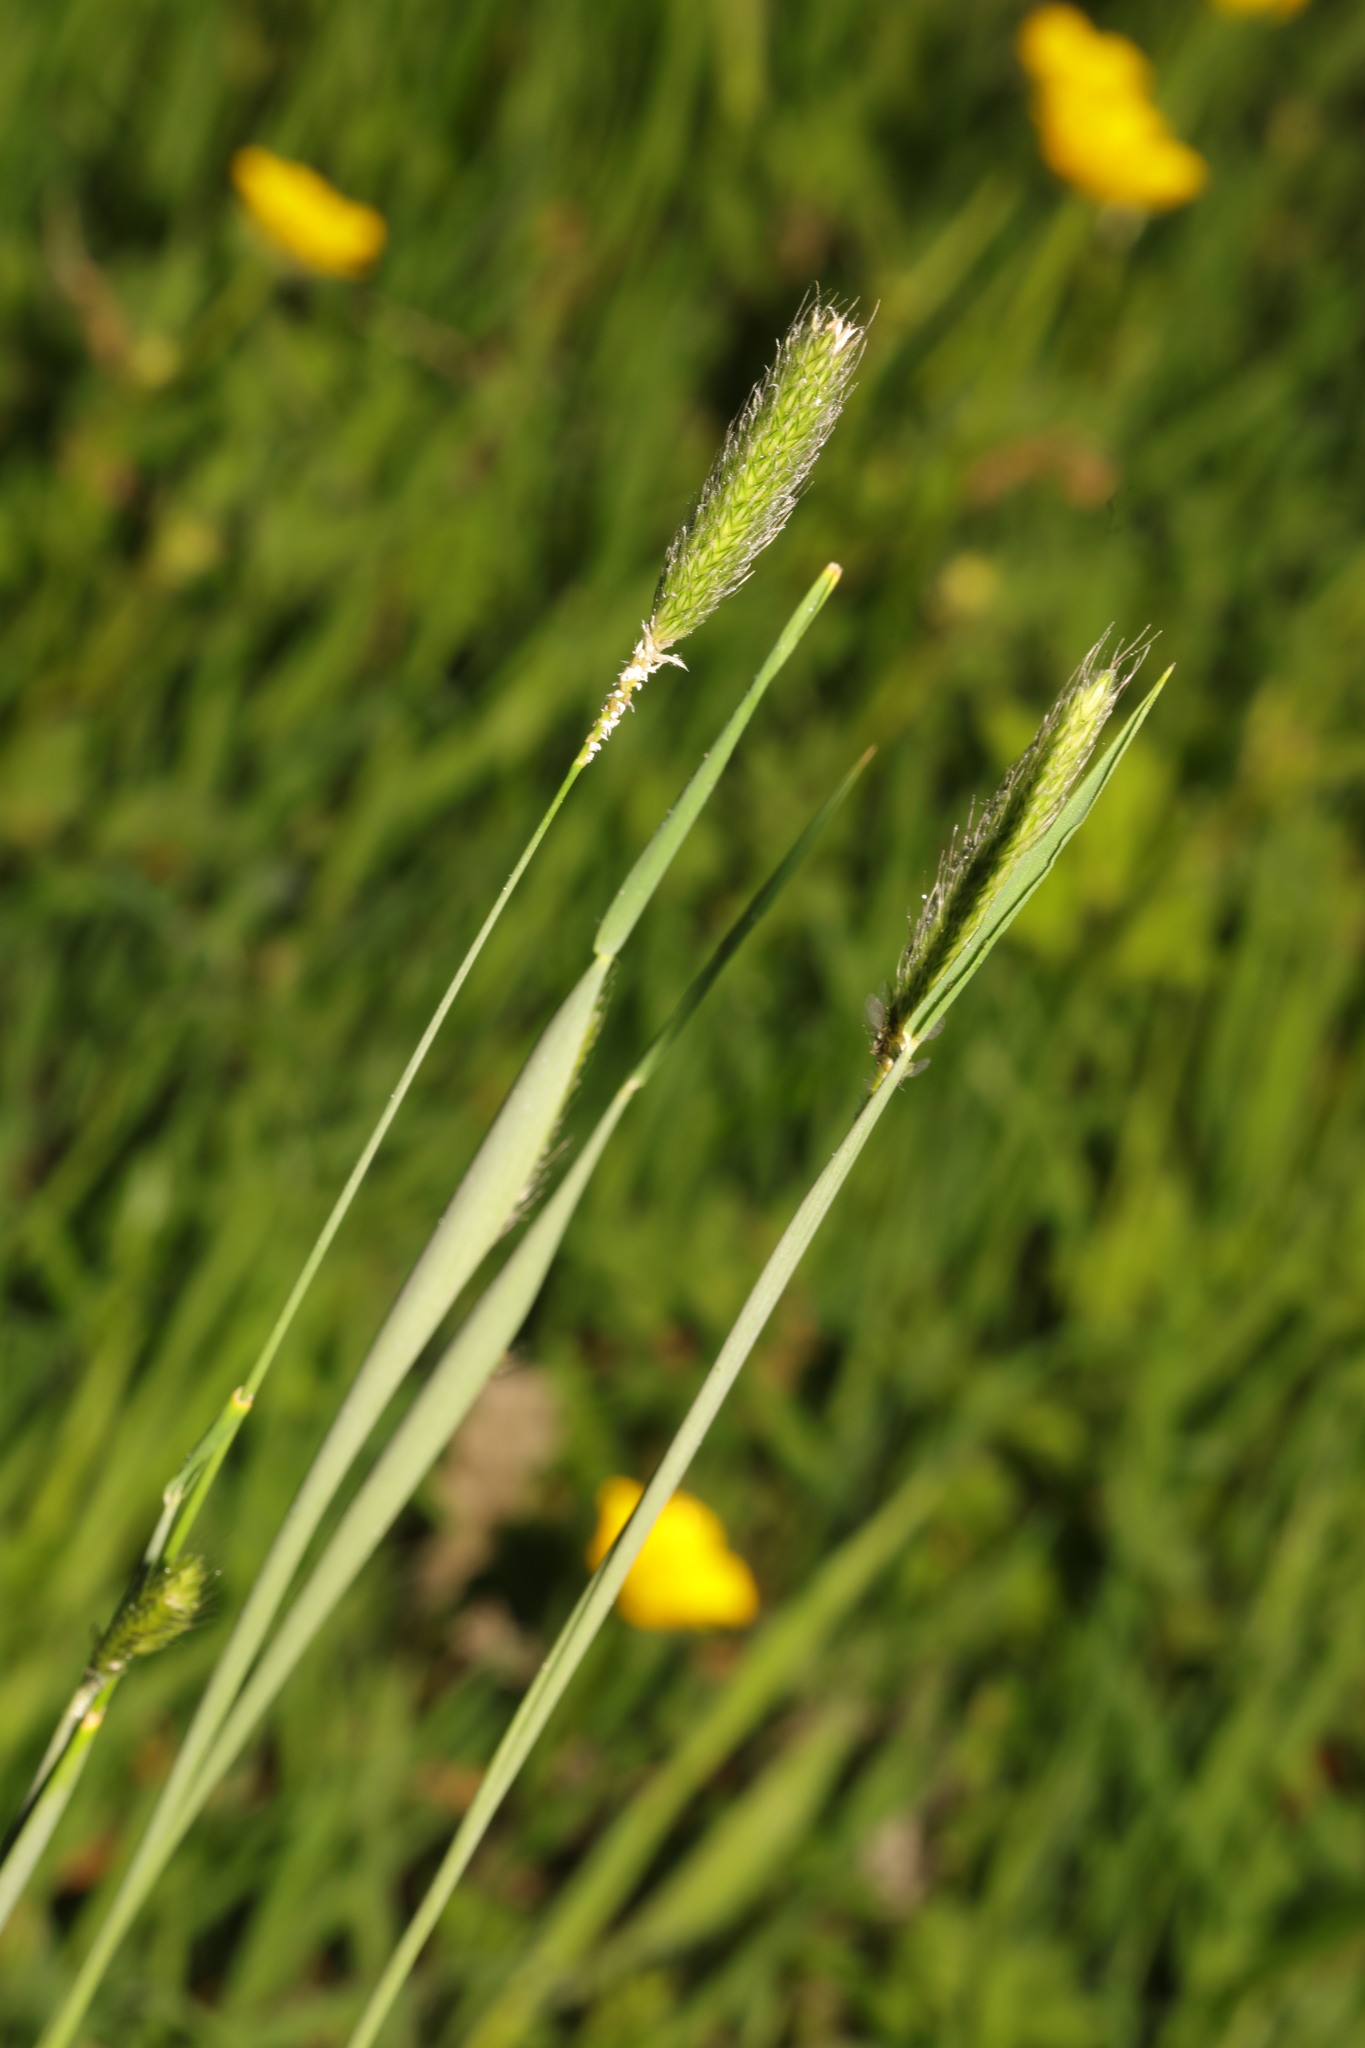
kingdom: Plantae
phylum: Tracheophyta
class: Liliopsida
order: Poales
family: Poaceae
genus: Alopecurus
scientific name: Alopecurus pratensis
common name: Meadow foxtail
